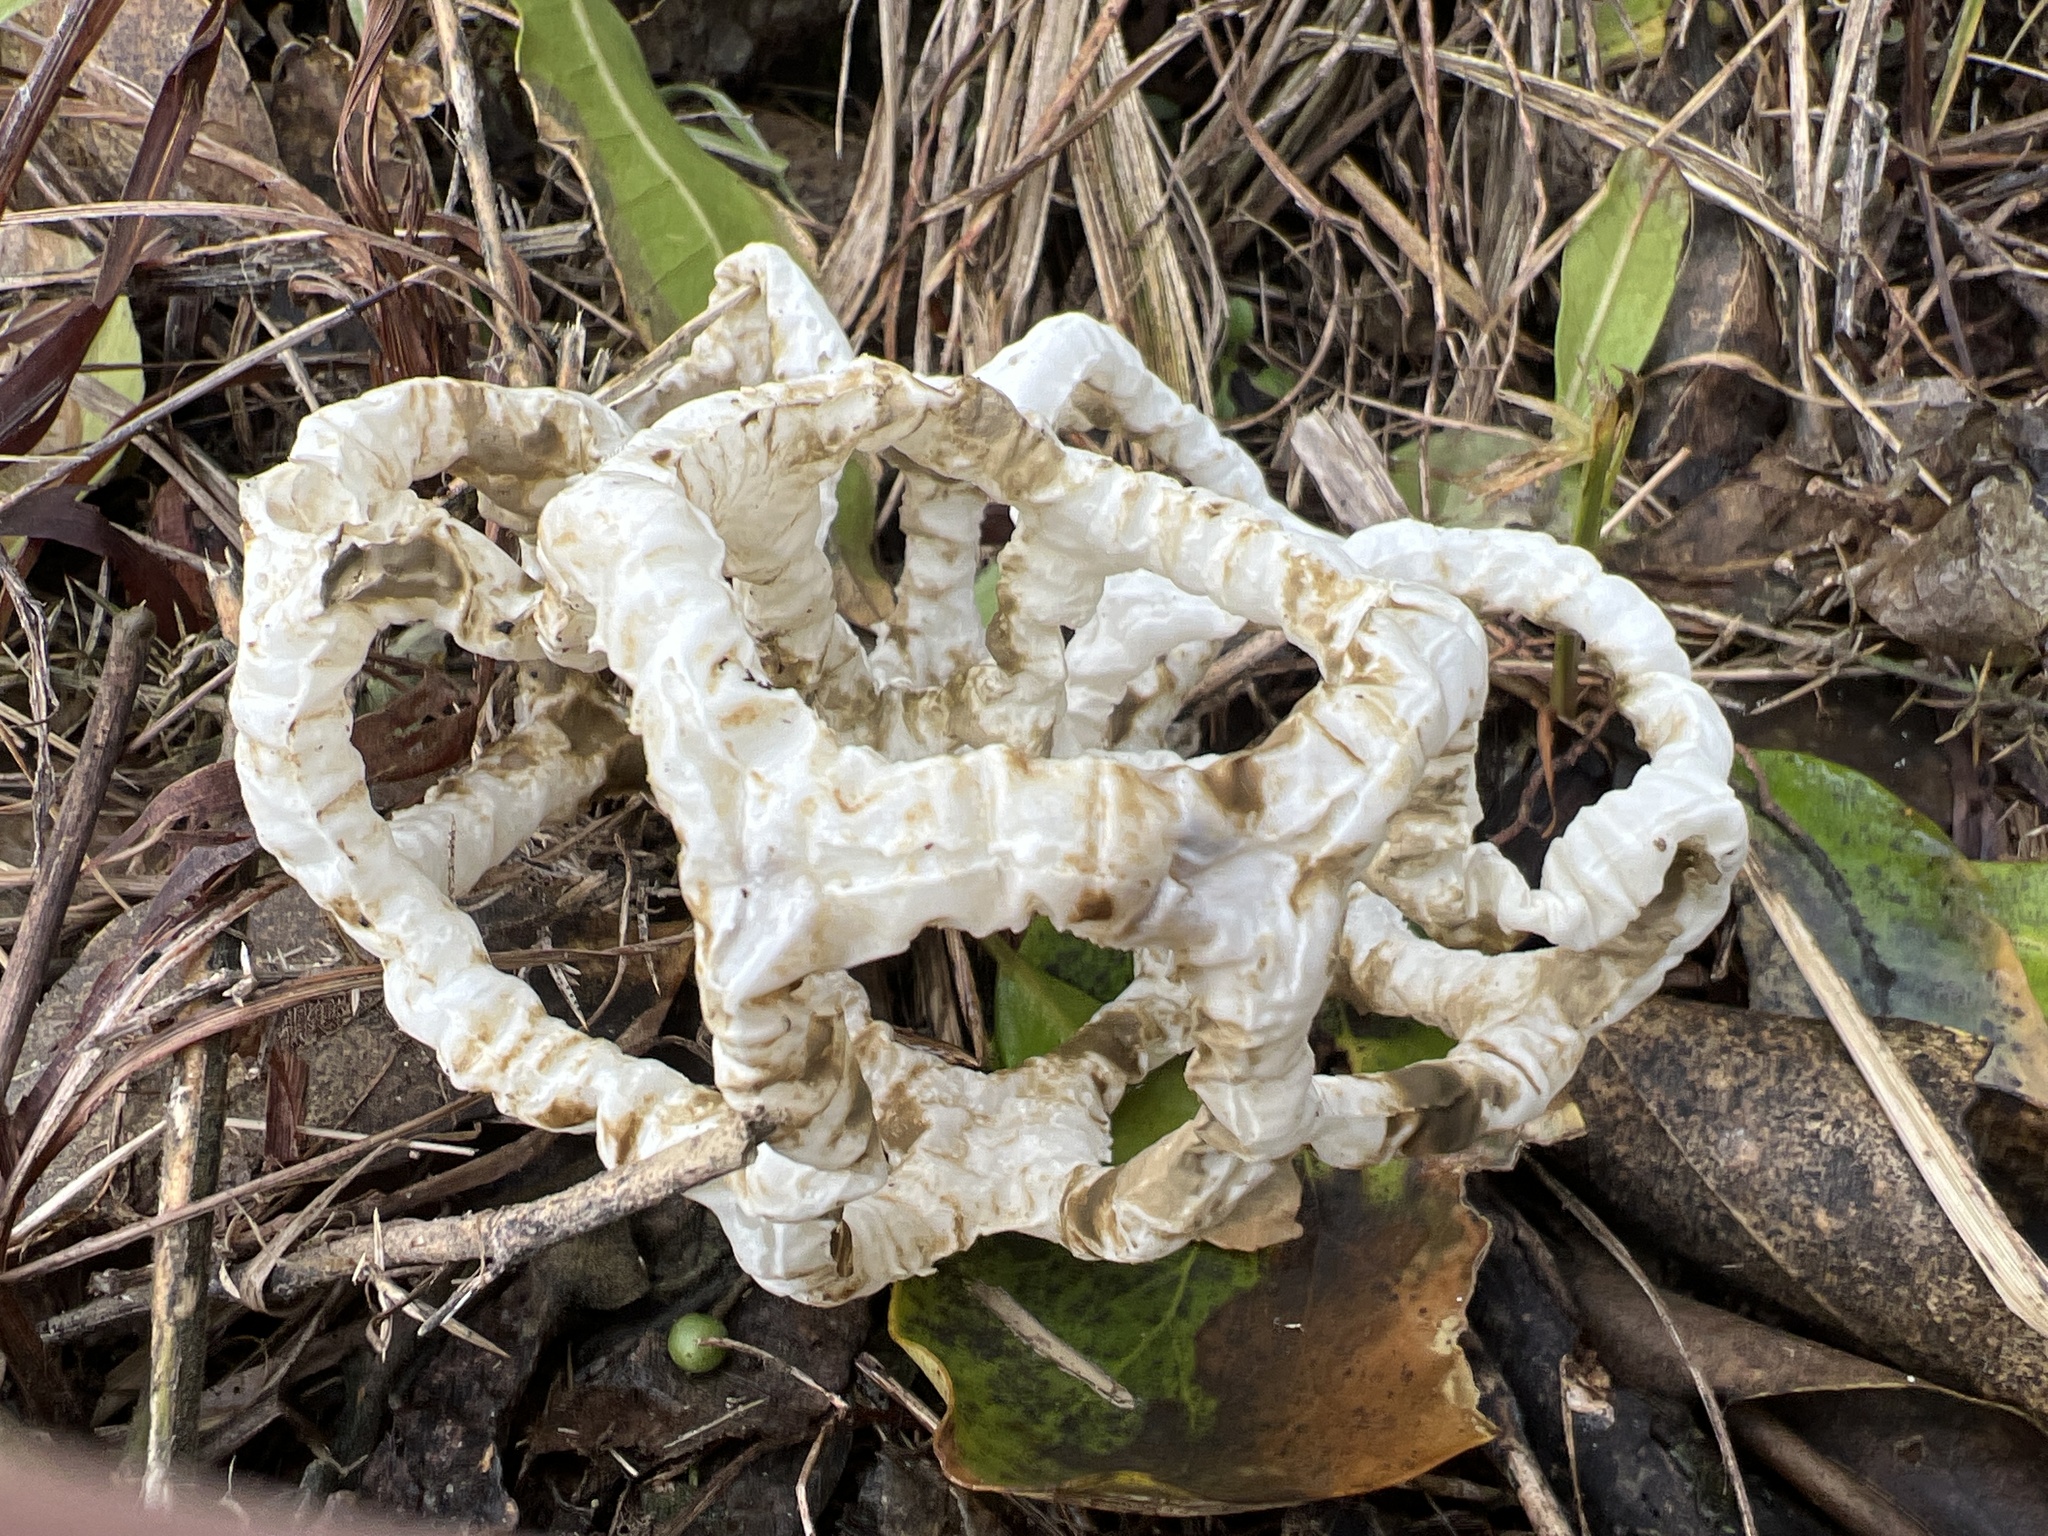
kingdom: Fungi
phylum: Basidiomycota
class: Agaricomycetes
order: Phallales
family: Phallaceae
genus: Ileodictyon
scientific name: Ileodictyon cibarium
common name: Basket fungus
